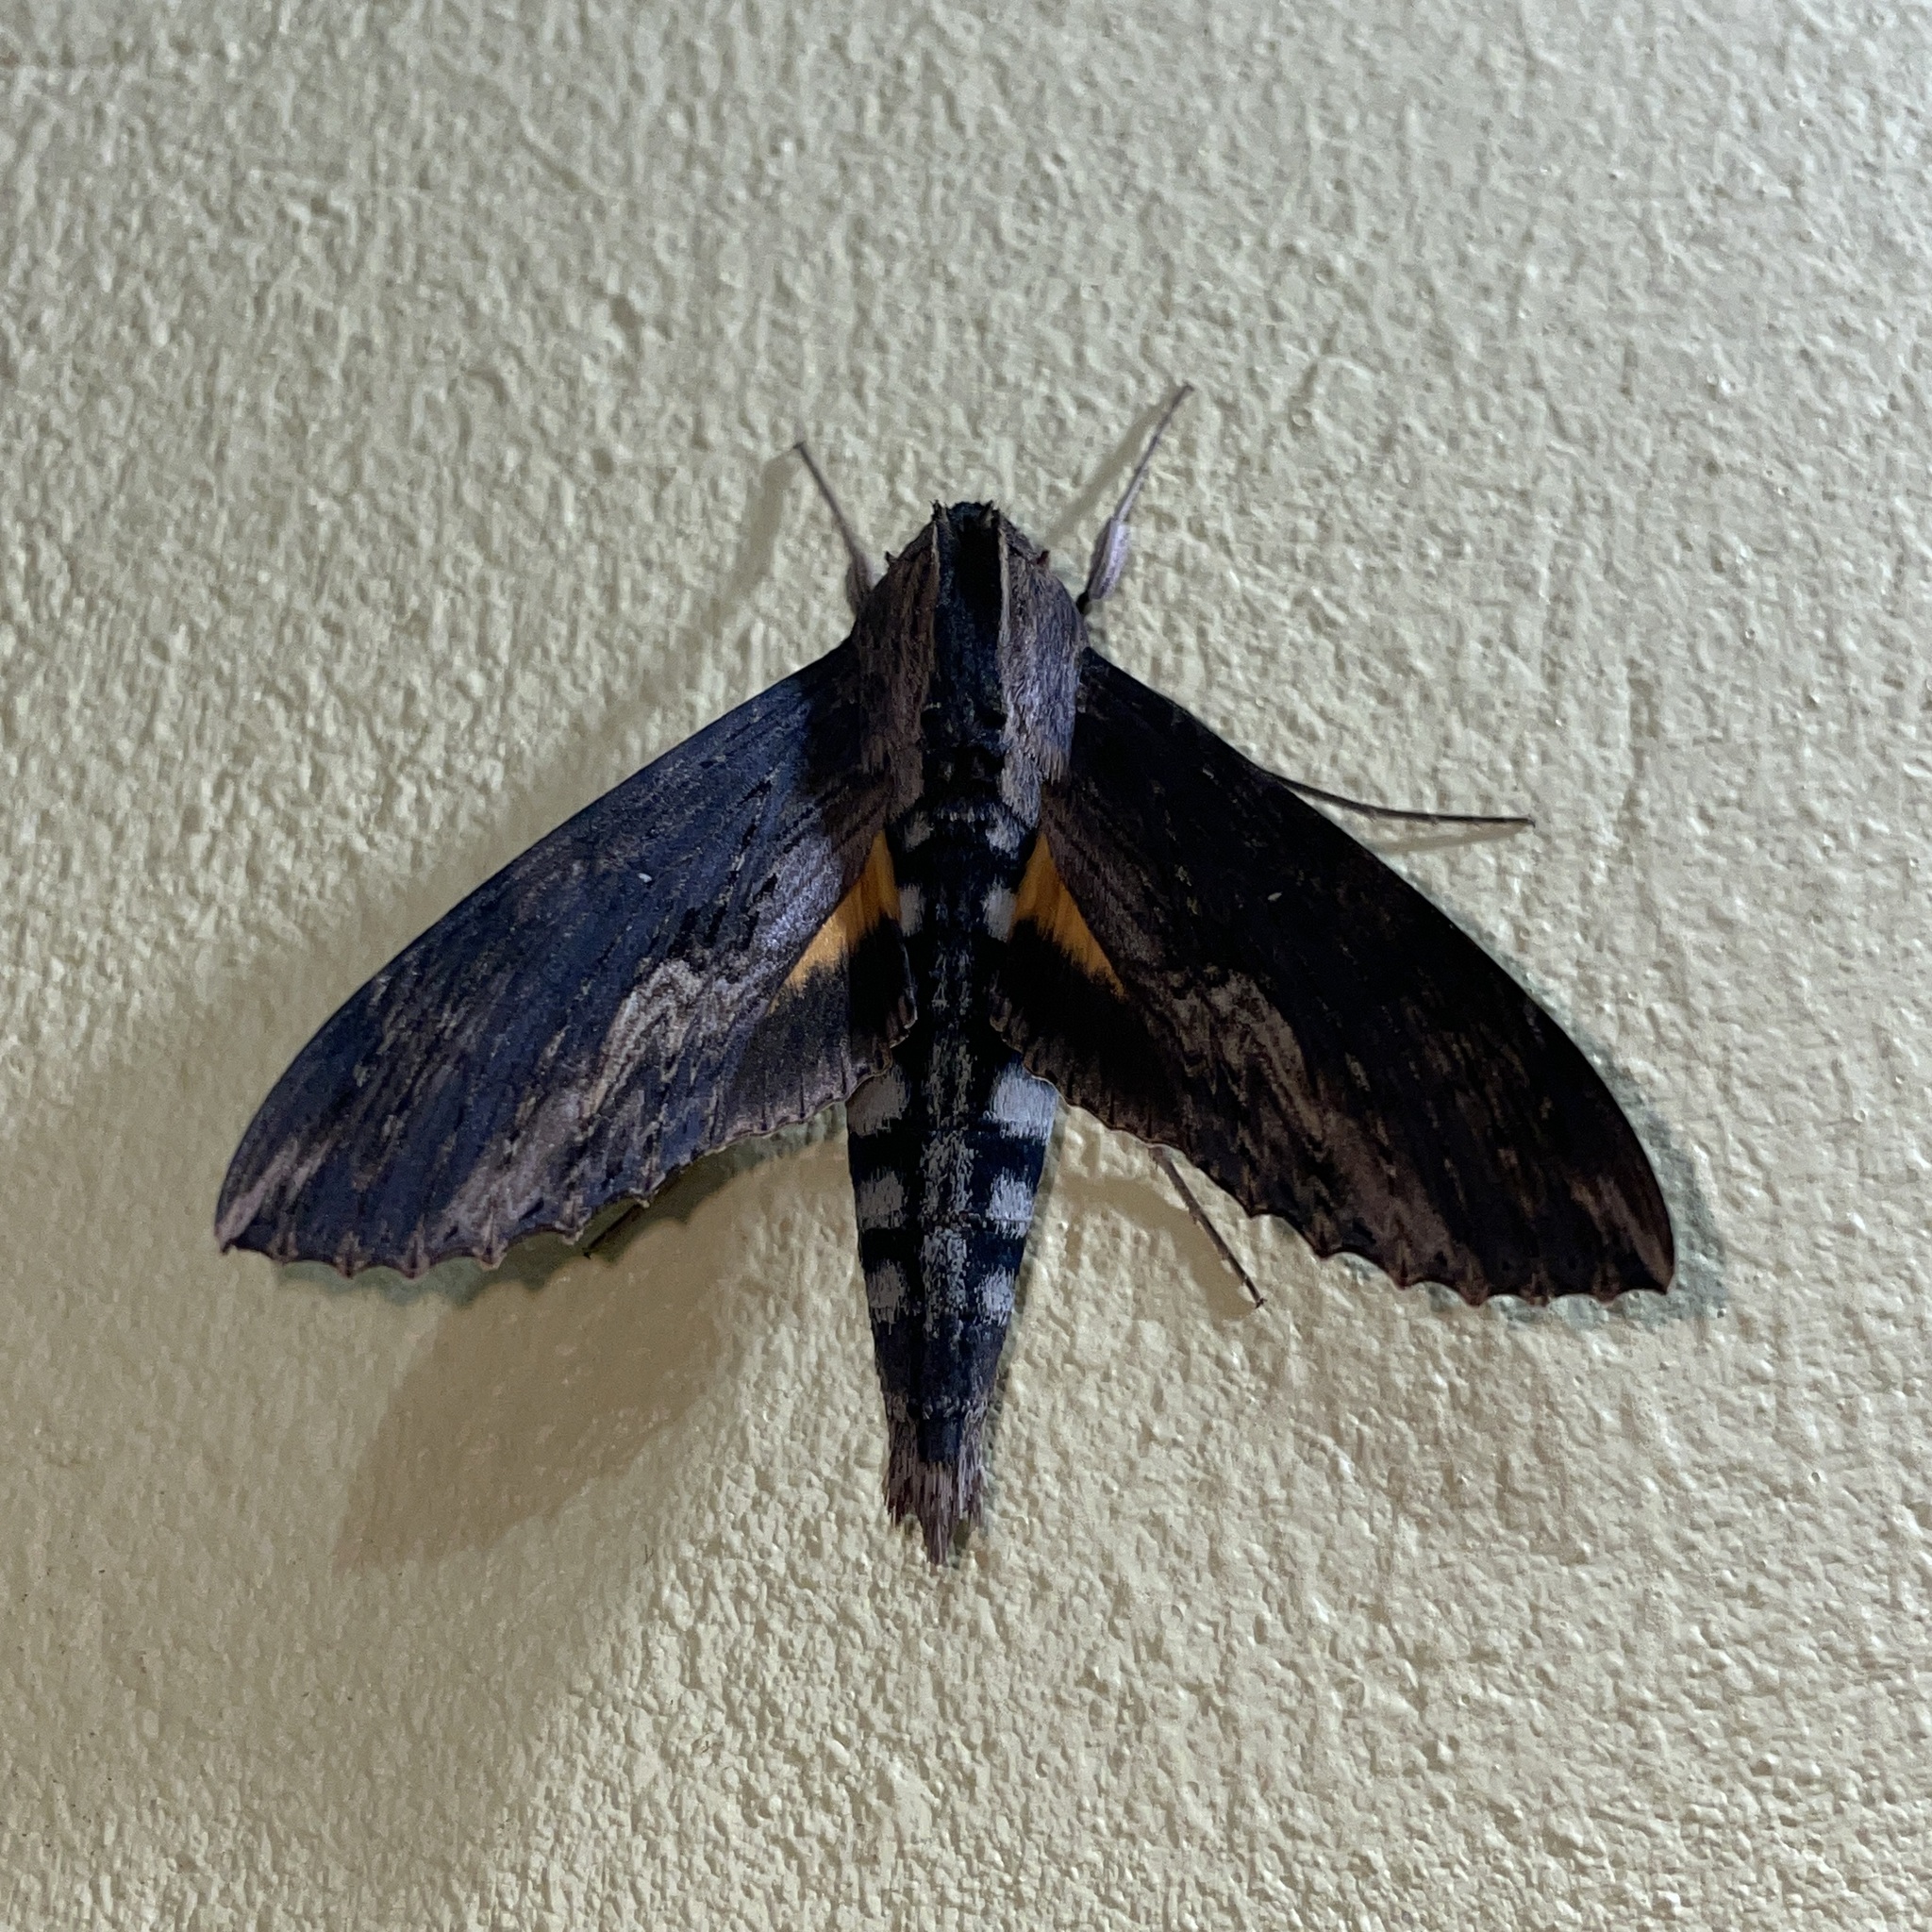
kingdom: Animalia
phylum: Arthropoda
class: Insecta
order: Lepidoptera
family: Sphingidae
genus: Erinnyis
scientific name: Erinnyis alope
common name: Alope sphinx
